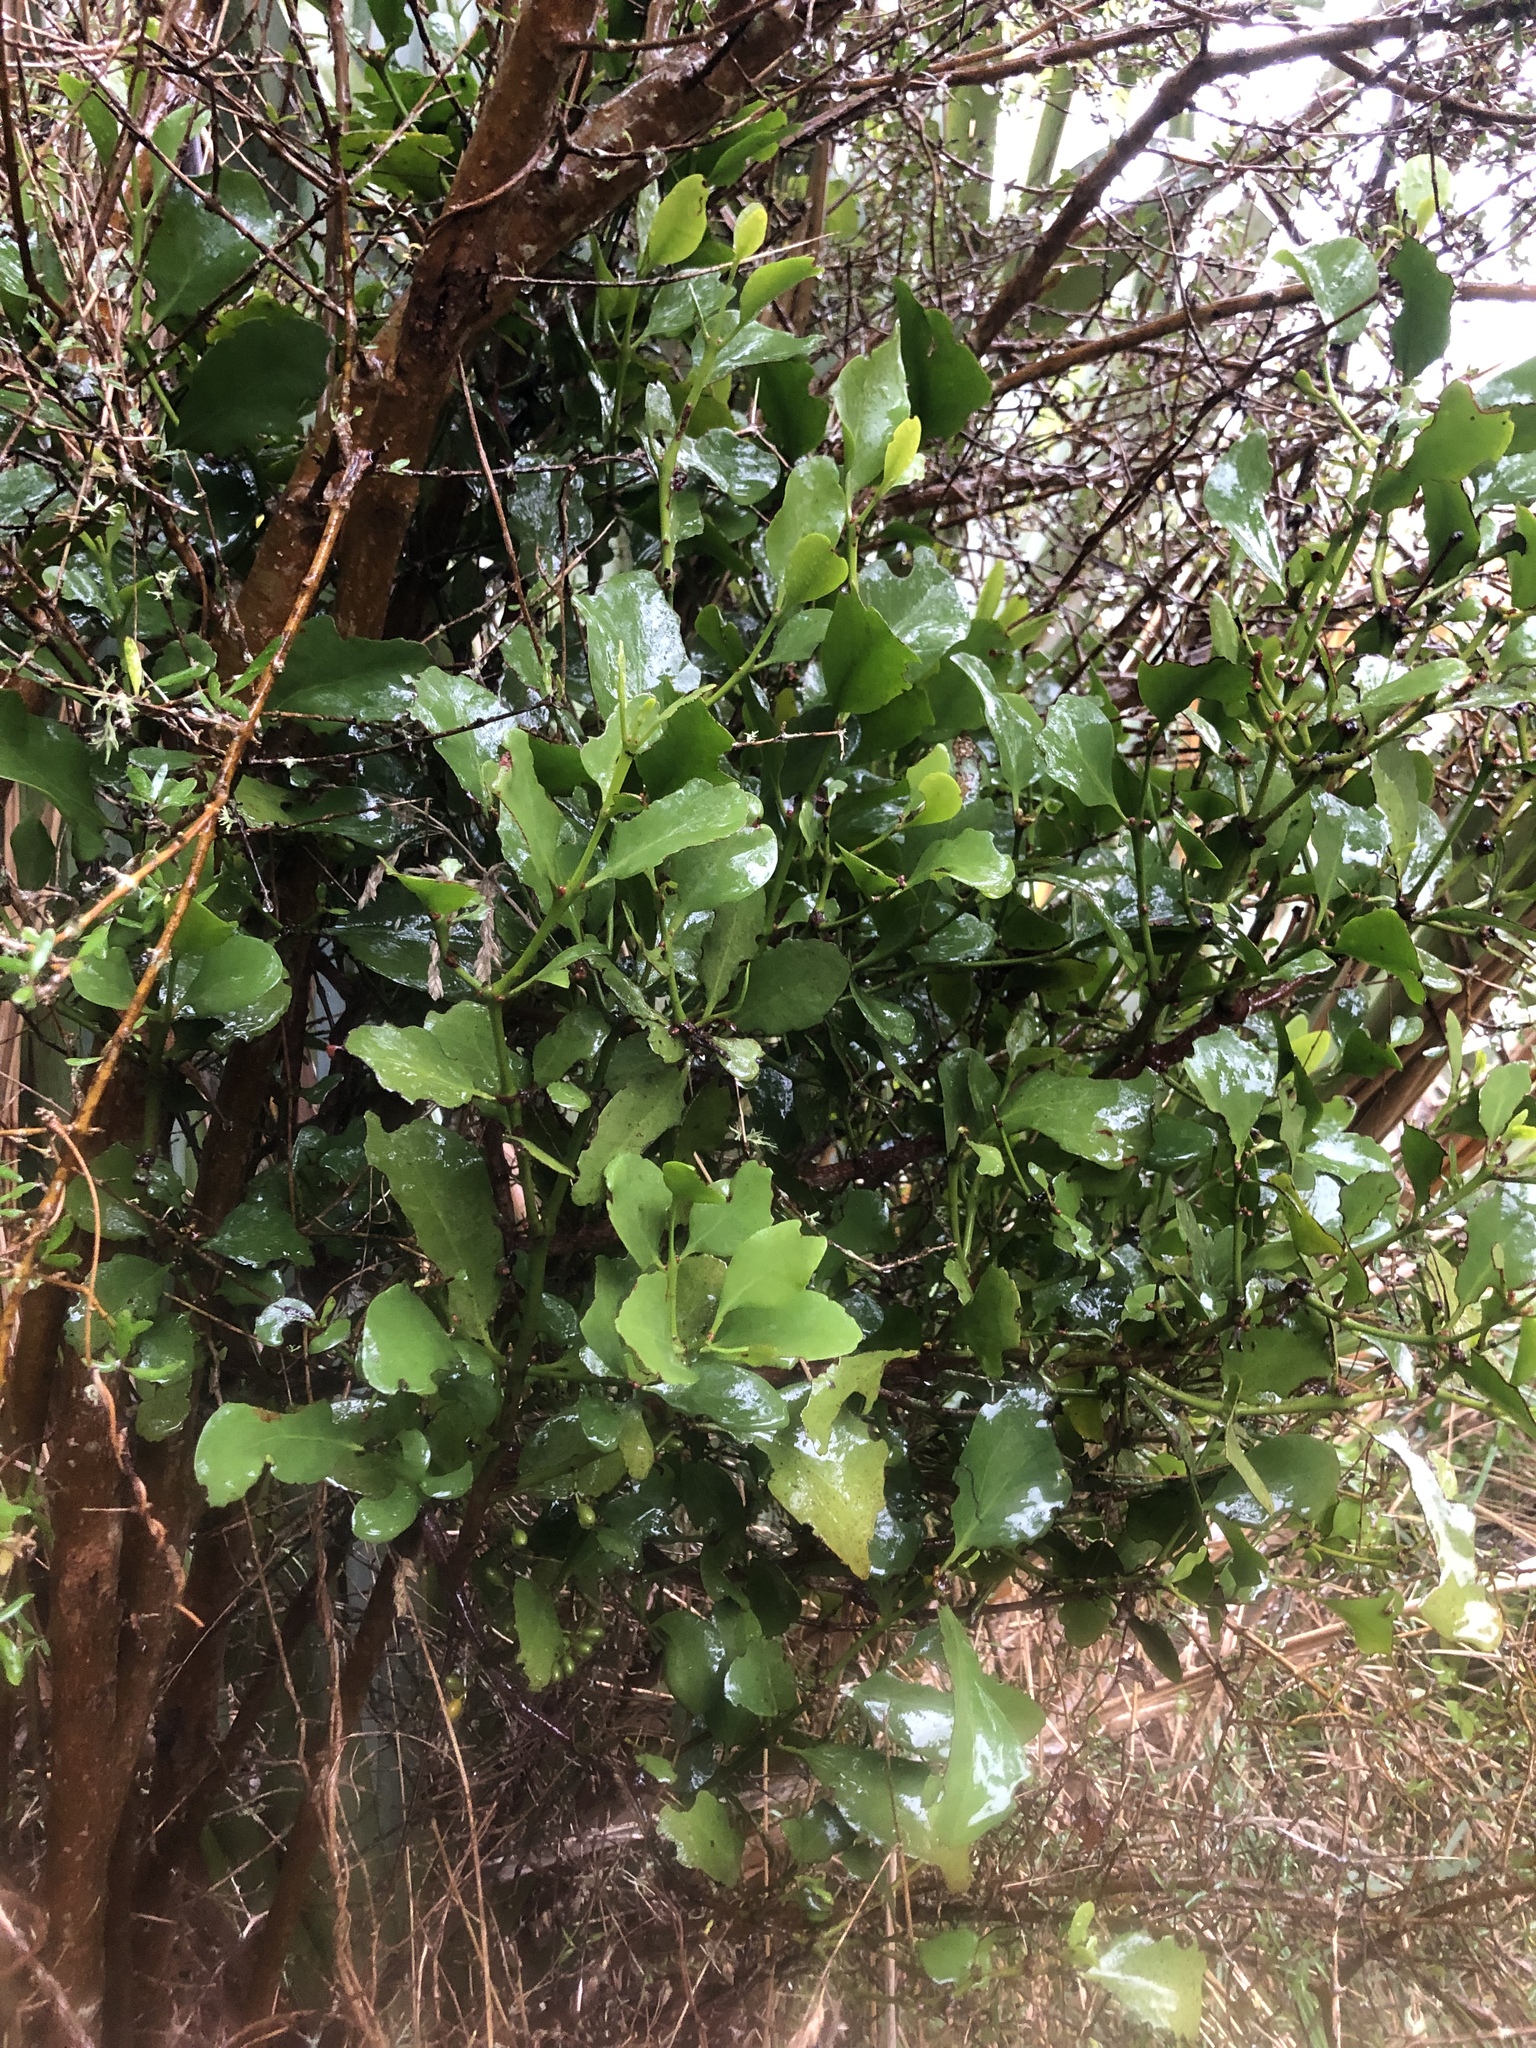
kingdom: Plantae
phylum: Tracheophyta
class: Magnoliopsida
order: Santalales
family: Loranthaceae
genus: Ileostylus
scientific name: Ileostylus micranthus
